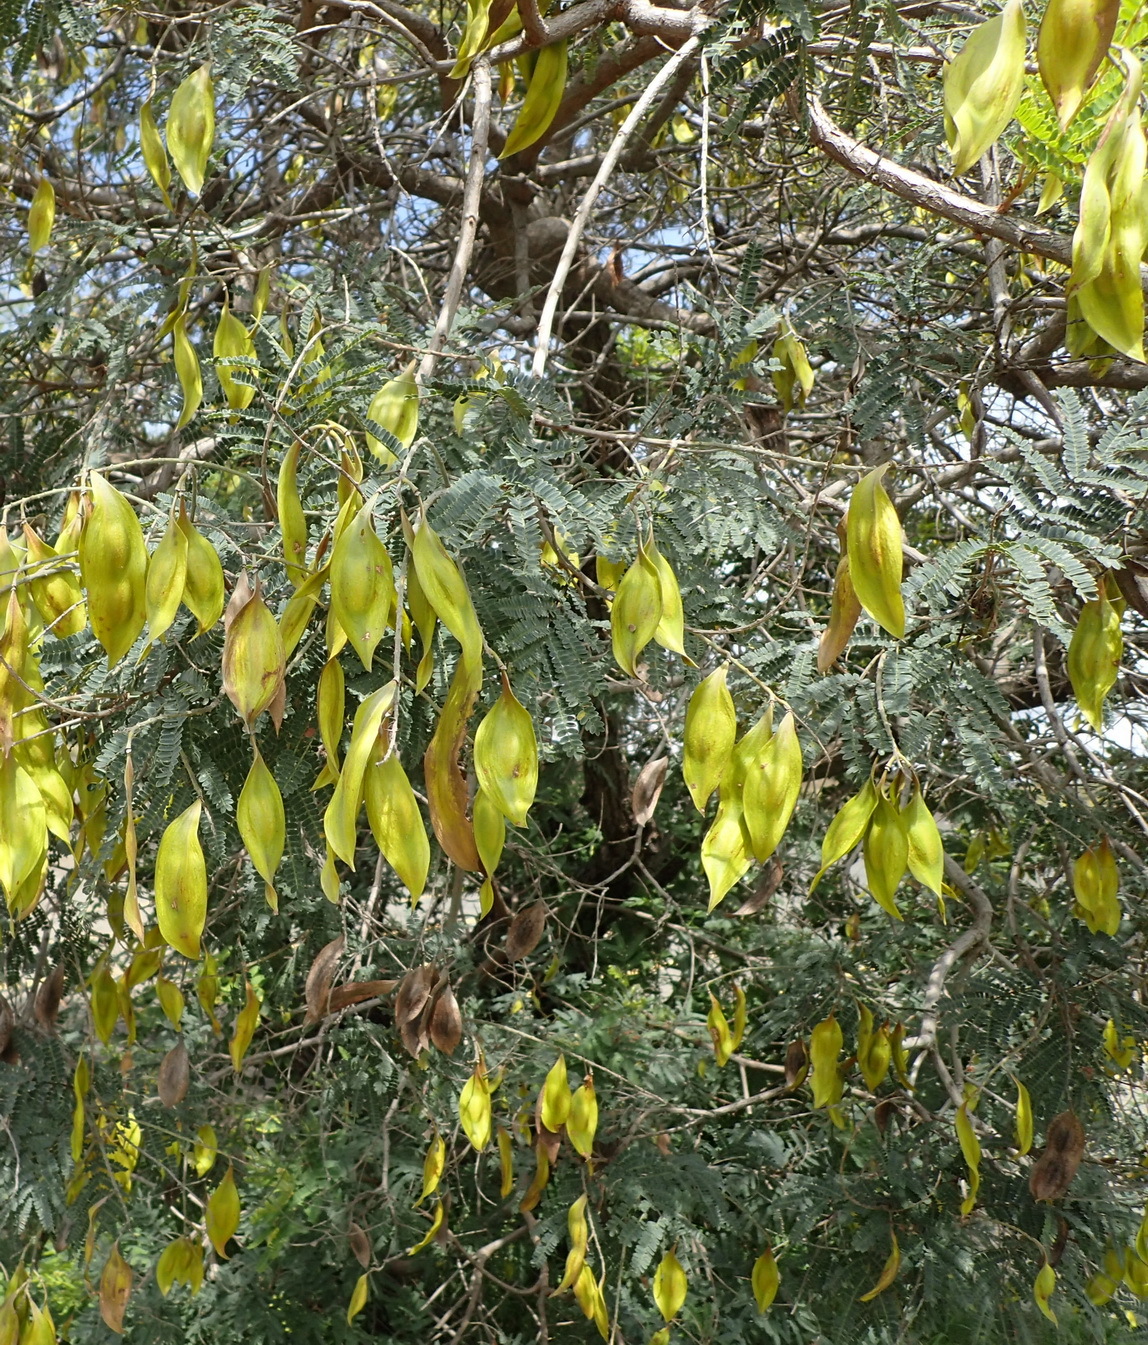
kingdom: Plantae
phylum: Tracheophyta
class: Magnoliopsida
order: Fabales
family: Fabaceae
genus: Peltophorum
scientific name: Peltophorum africanum
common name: African black wattle
